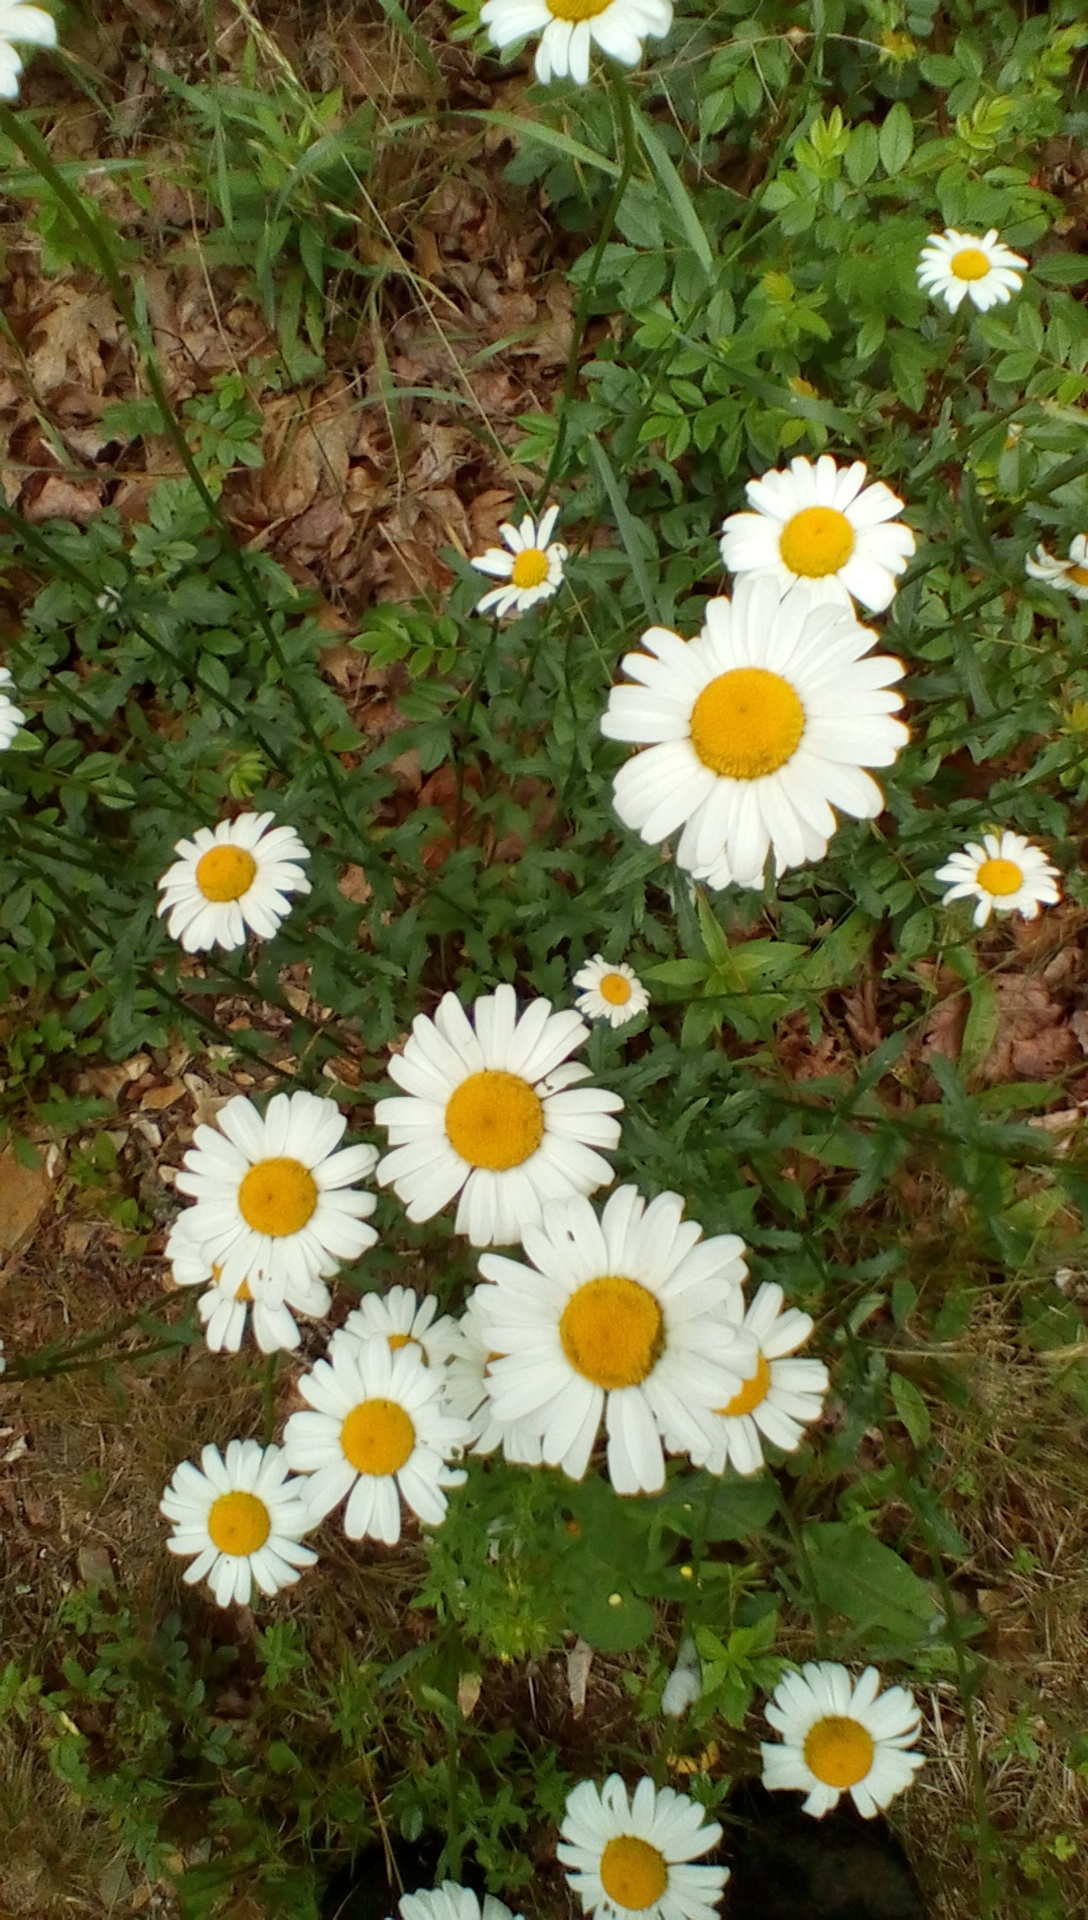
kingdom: Plantae
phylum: Tracheophyta
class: Magnoliopsida
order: Asterales
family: Asteraceae
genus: Leucanthemum
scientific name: Leucanthemum vulgare
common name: Oxeye daisy
